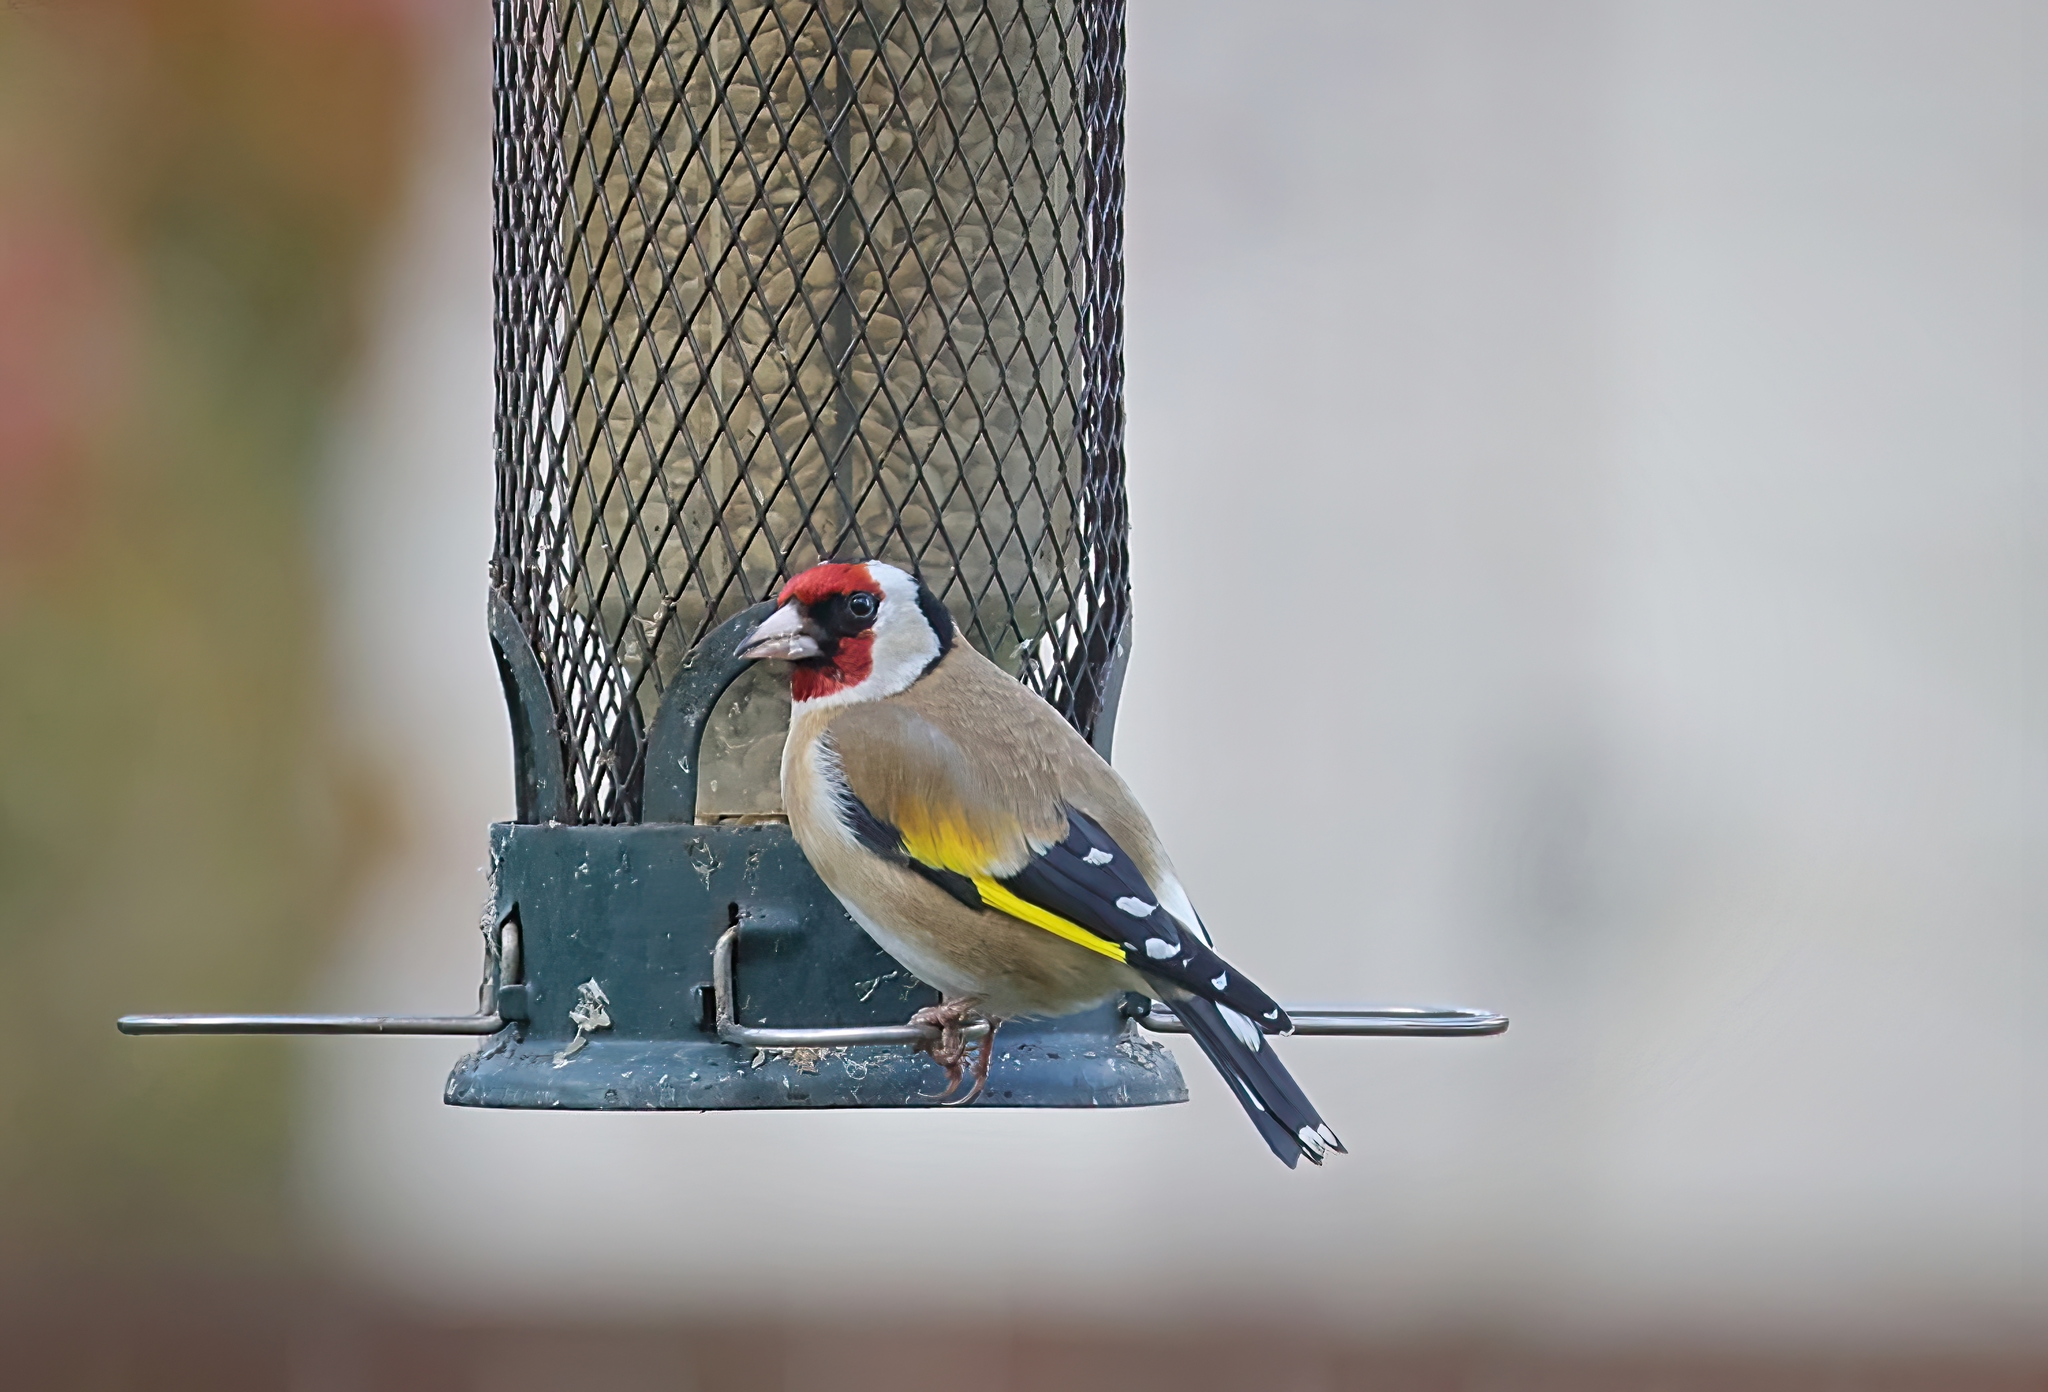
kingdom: Animalia
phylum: Chordata
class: Aves
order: Passeriformes
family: Fringillidae
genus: Carduelis
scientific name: Carduelis carduelis
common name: European goldfinch
